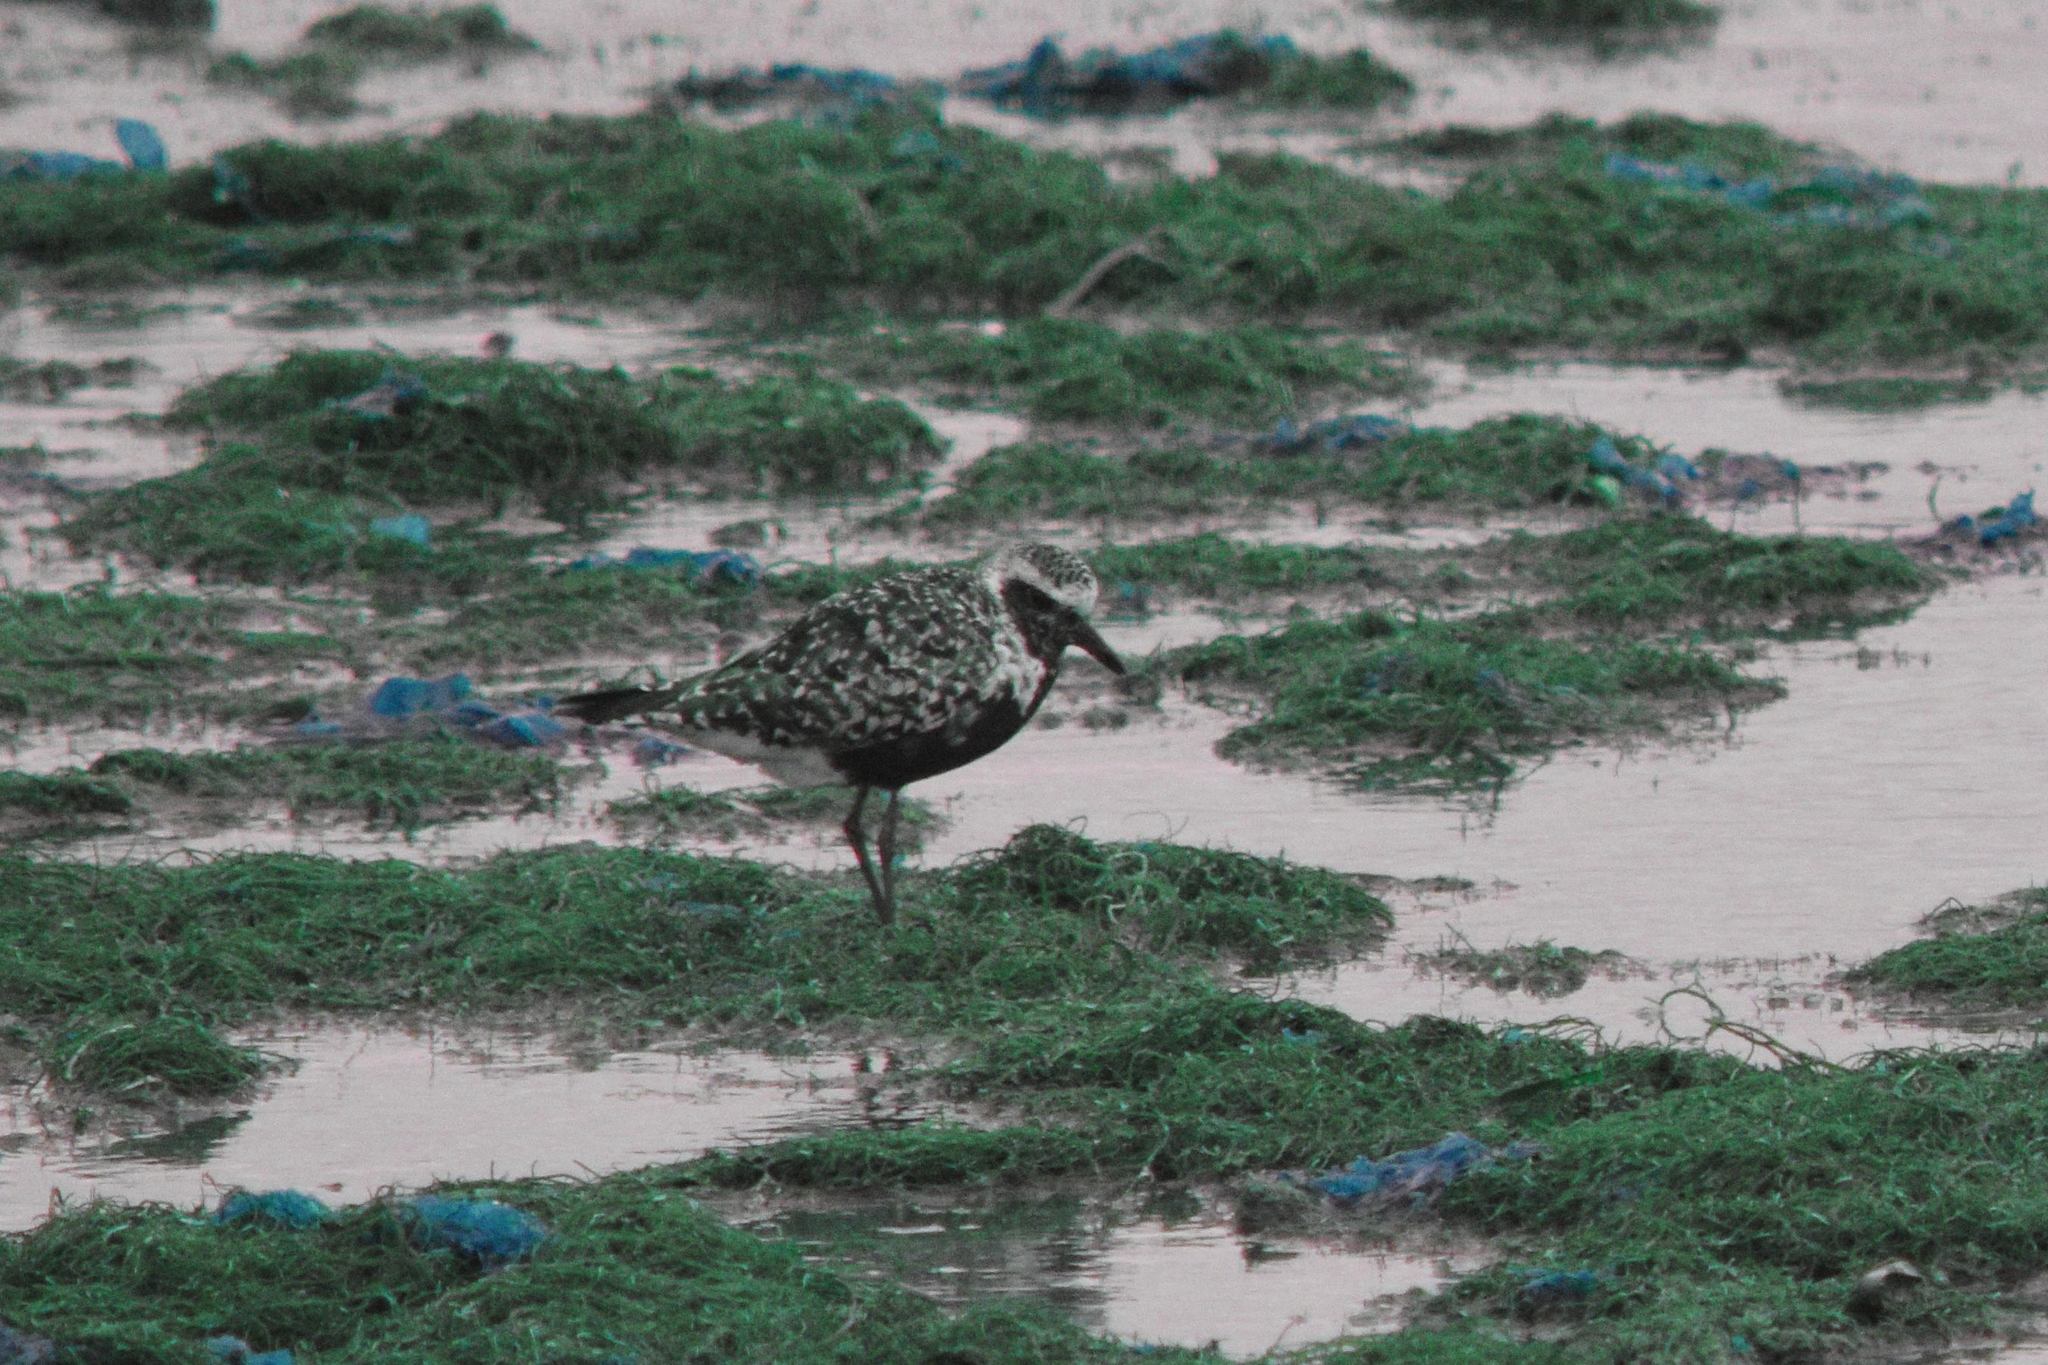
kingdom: Animalia
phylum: Chordata
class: Aves
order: Charadriiformes
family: Charadriidae
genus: Pluvialis
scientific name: Pluvialis squatarola
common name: Grey plover
